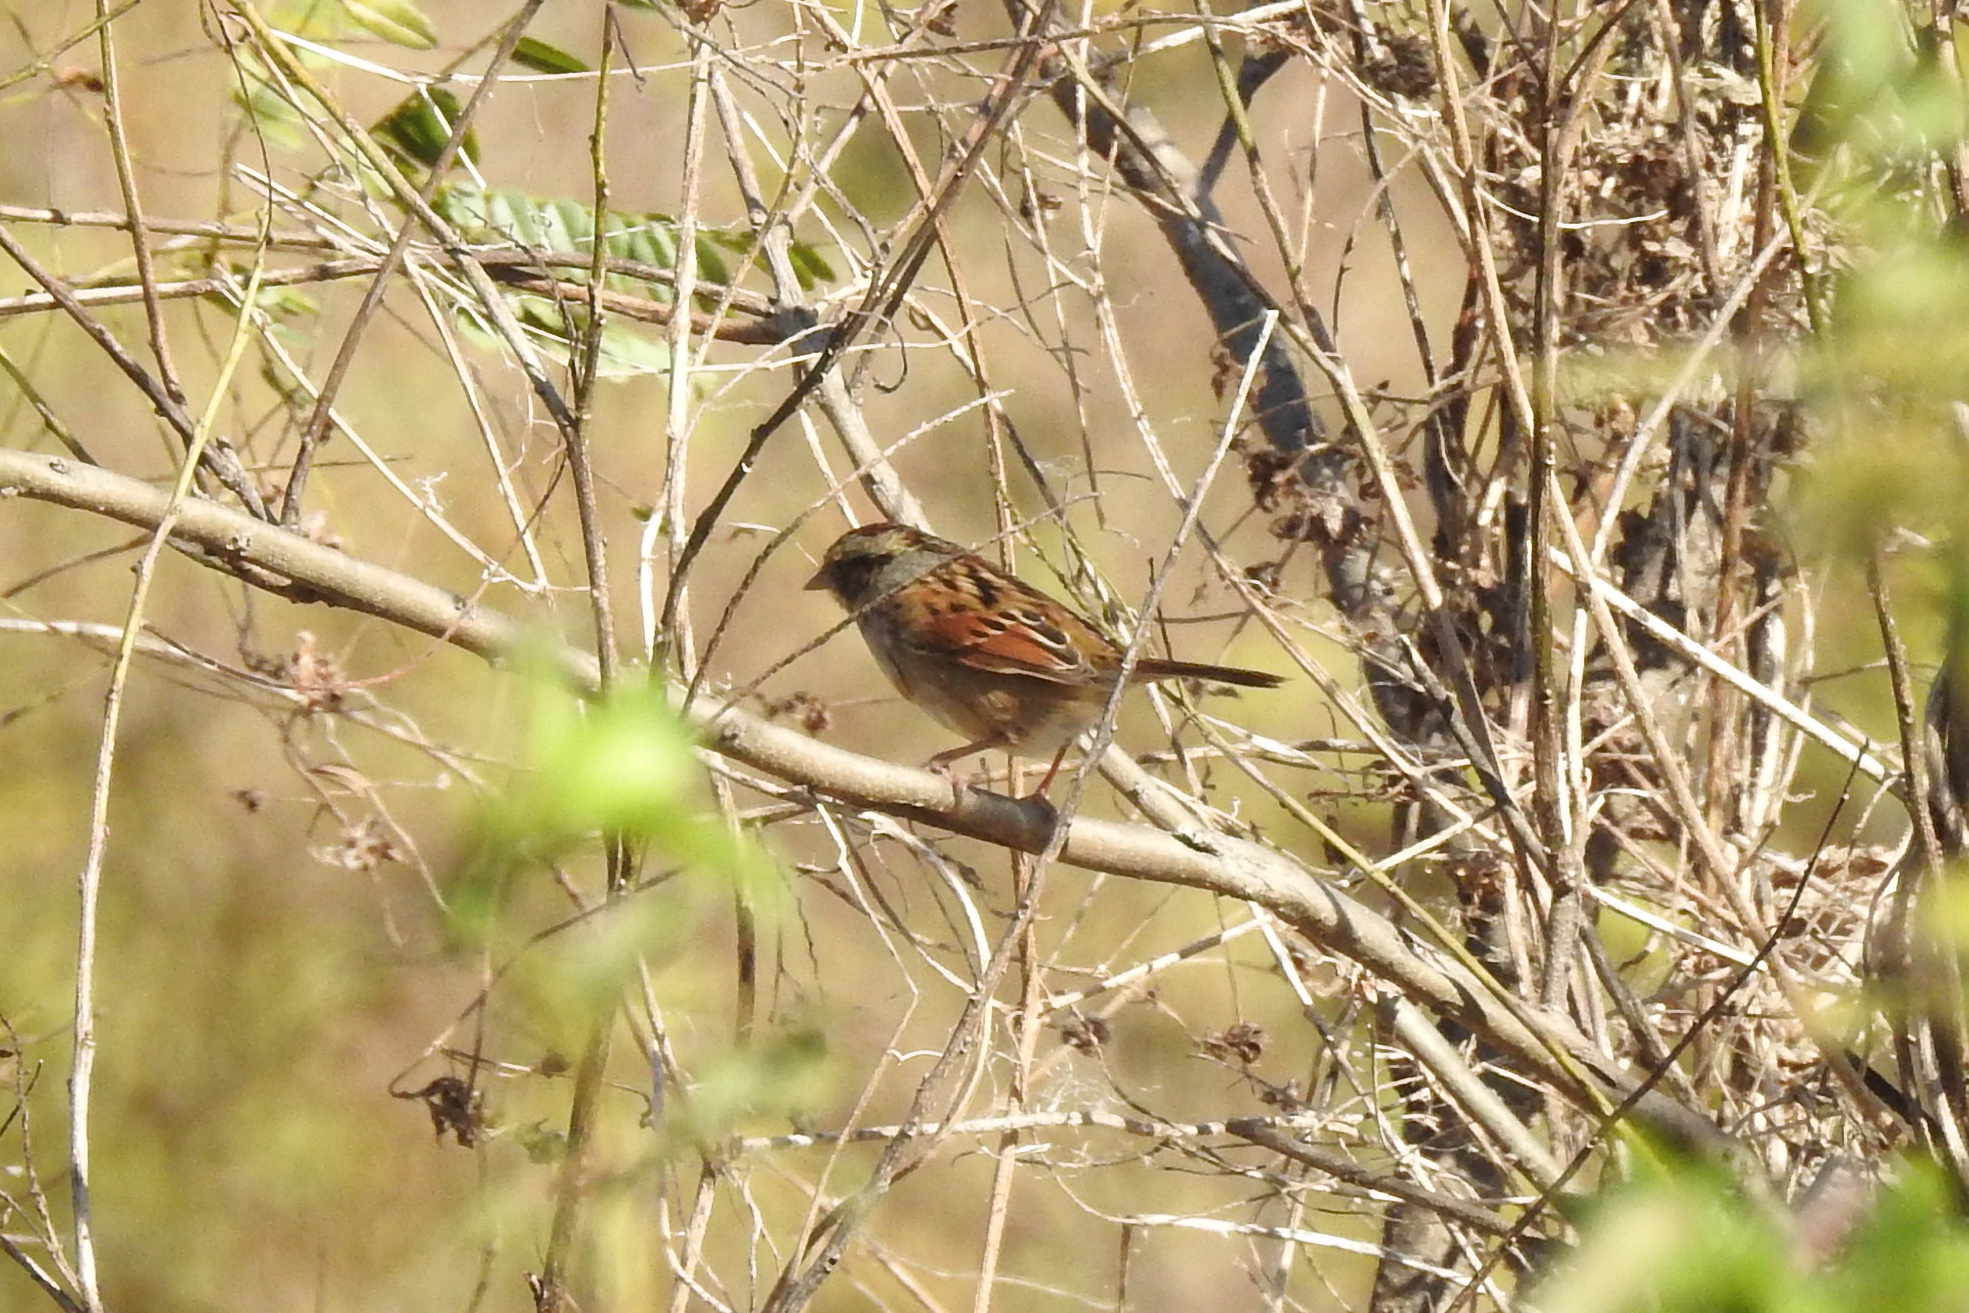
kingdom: Animalia
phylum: Chordata
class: Aves
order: Passeriformes
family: Passerellidae
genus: Melospiza
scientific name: Melospiza georgiana
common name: Swamp sparrow
